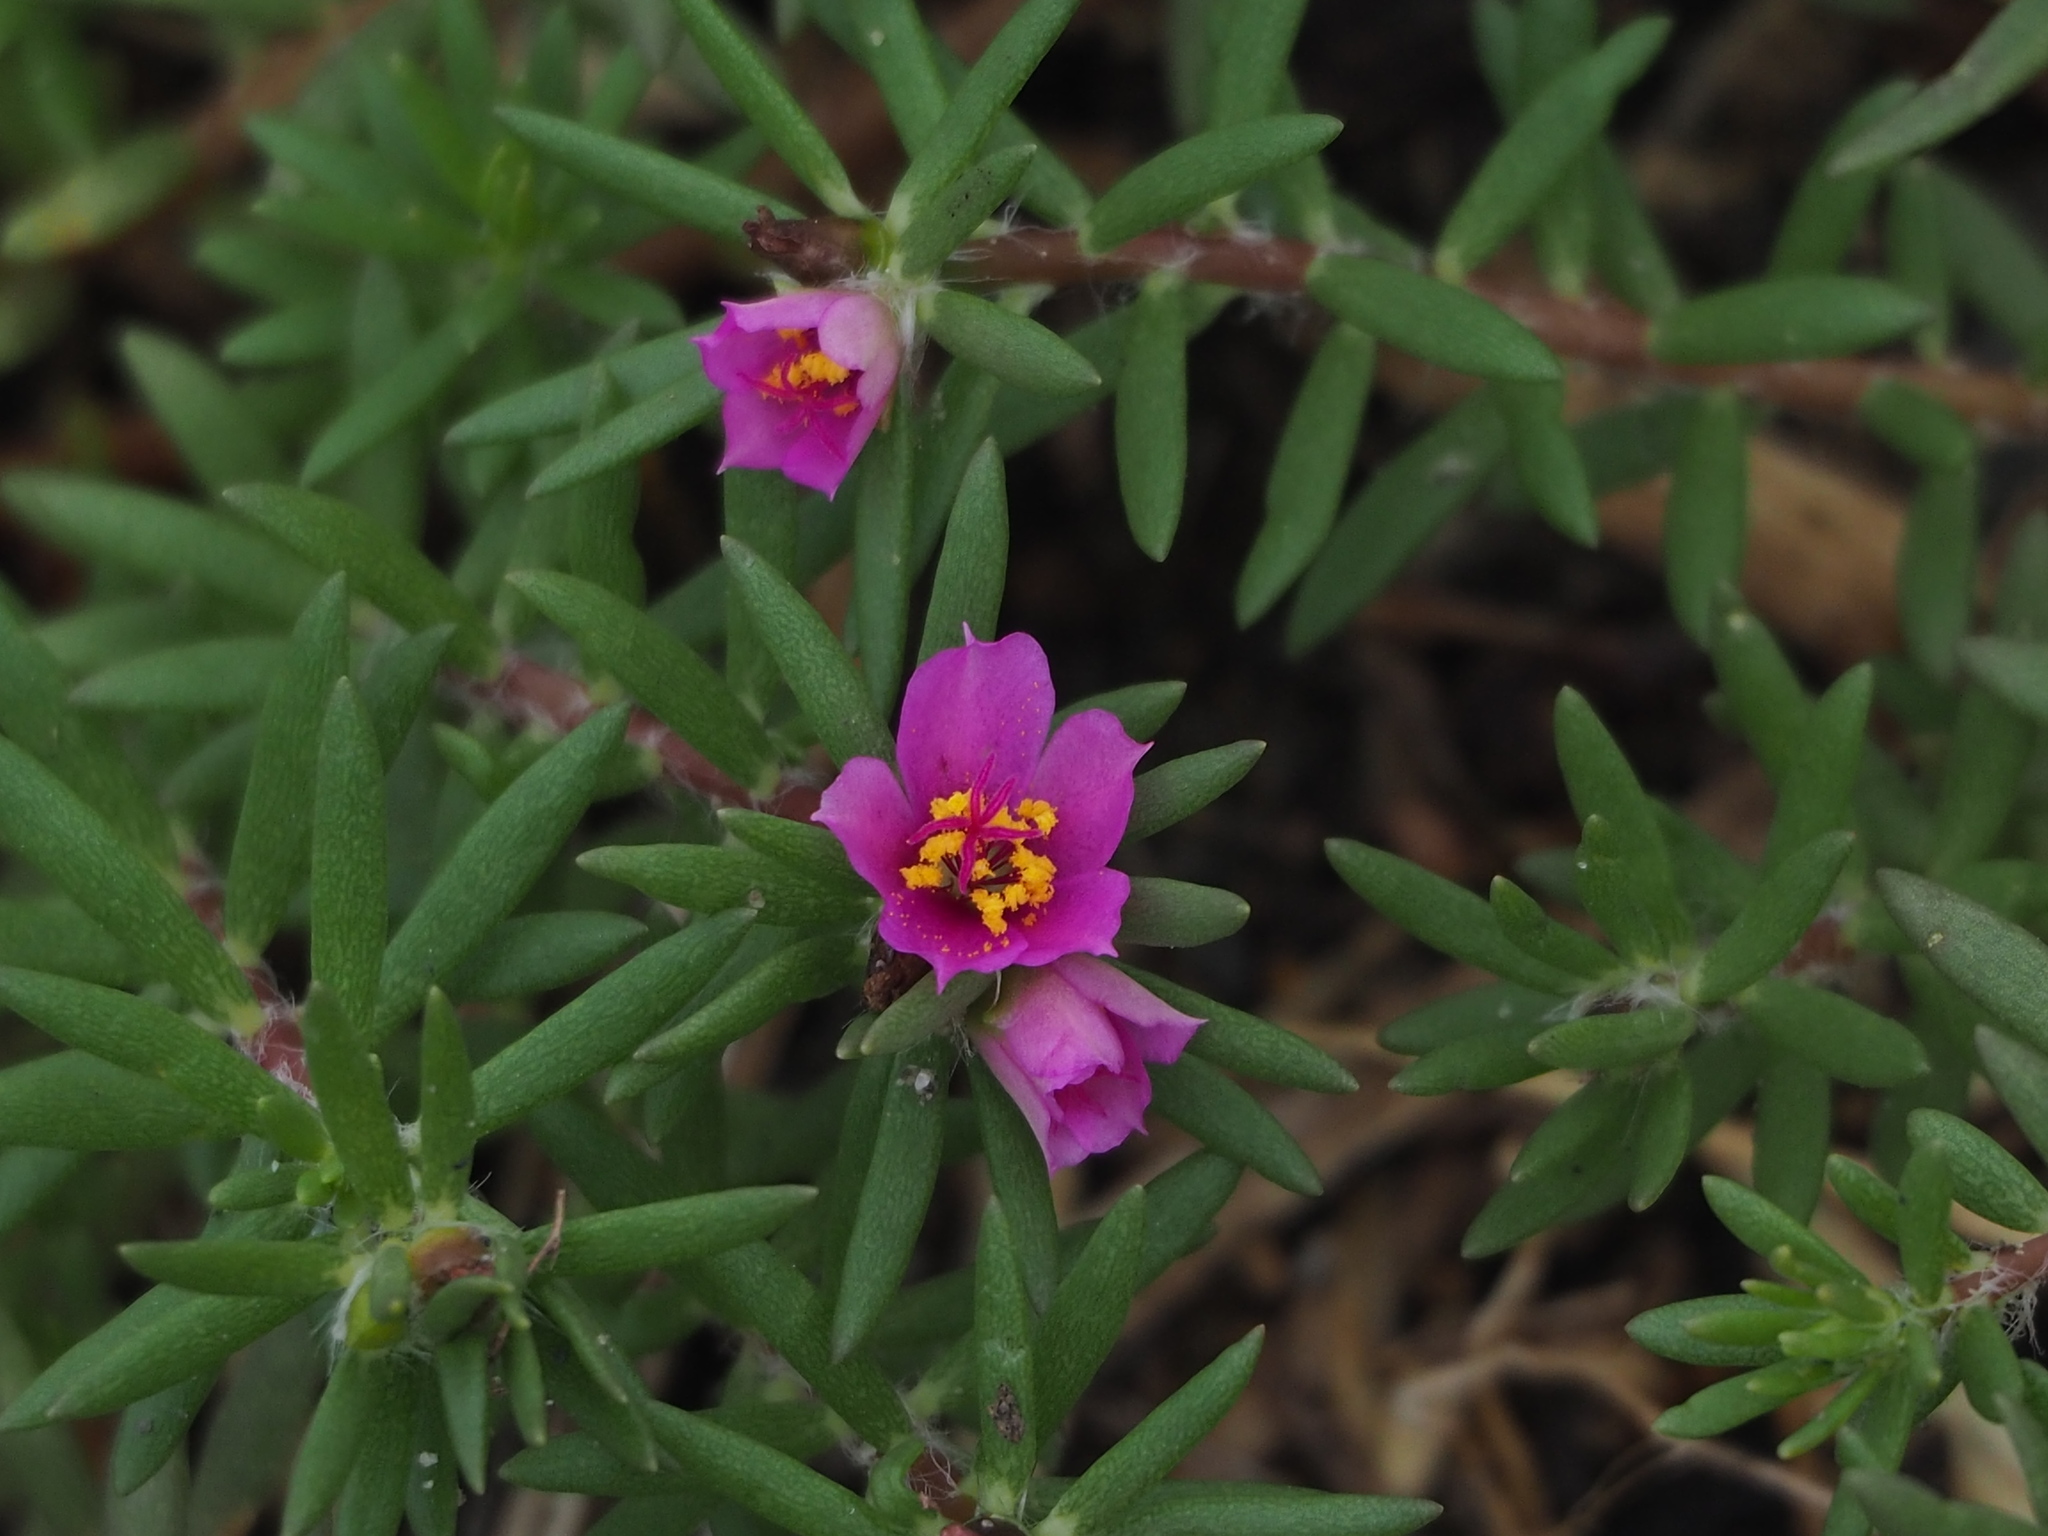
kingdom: Plantae
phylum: Tracheophyta
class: Magnoliopsida
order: Caryophyllales
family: Portulacaceae
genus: Portulaca
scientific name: Portulaca pilosa
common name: Kiss me quick
